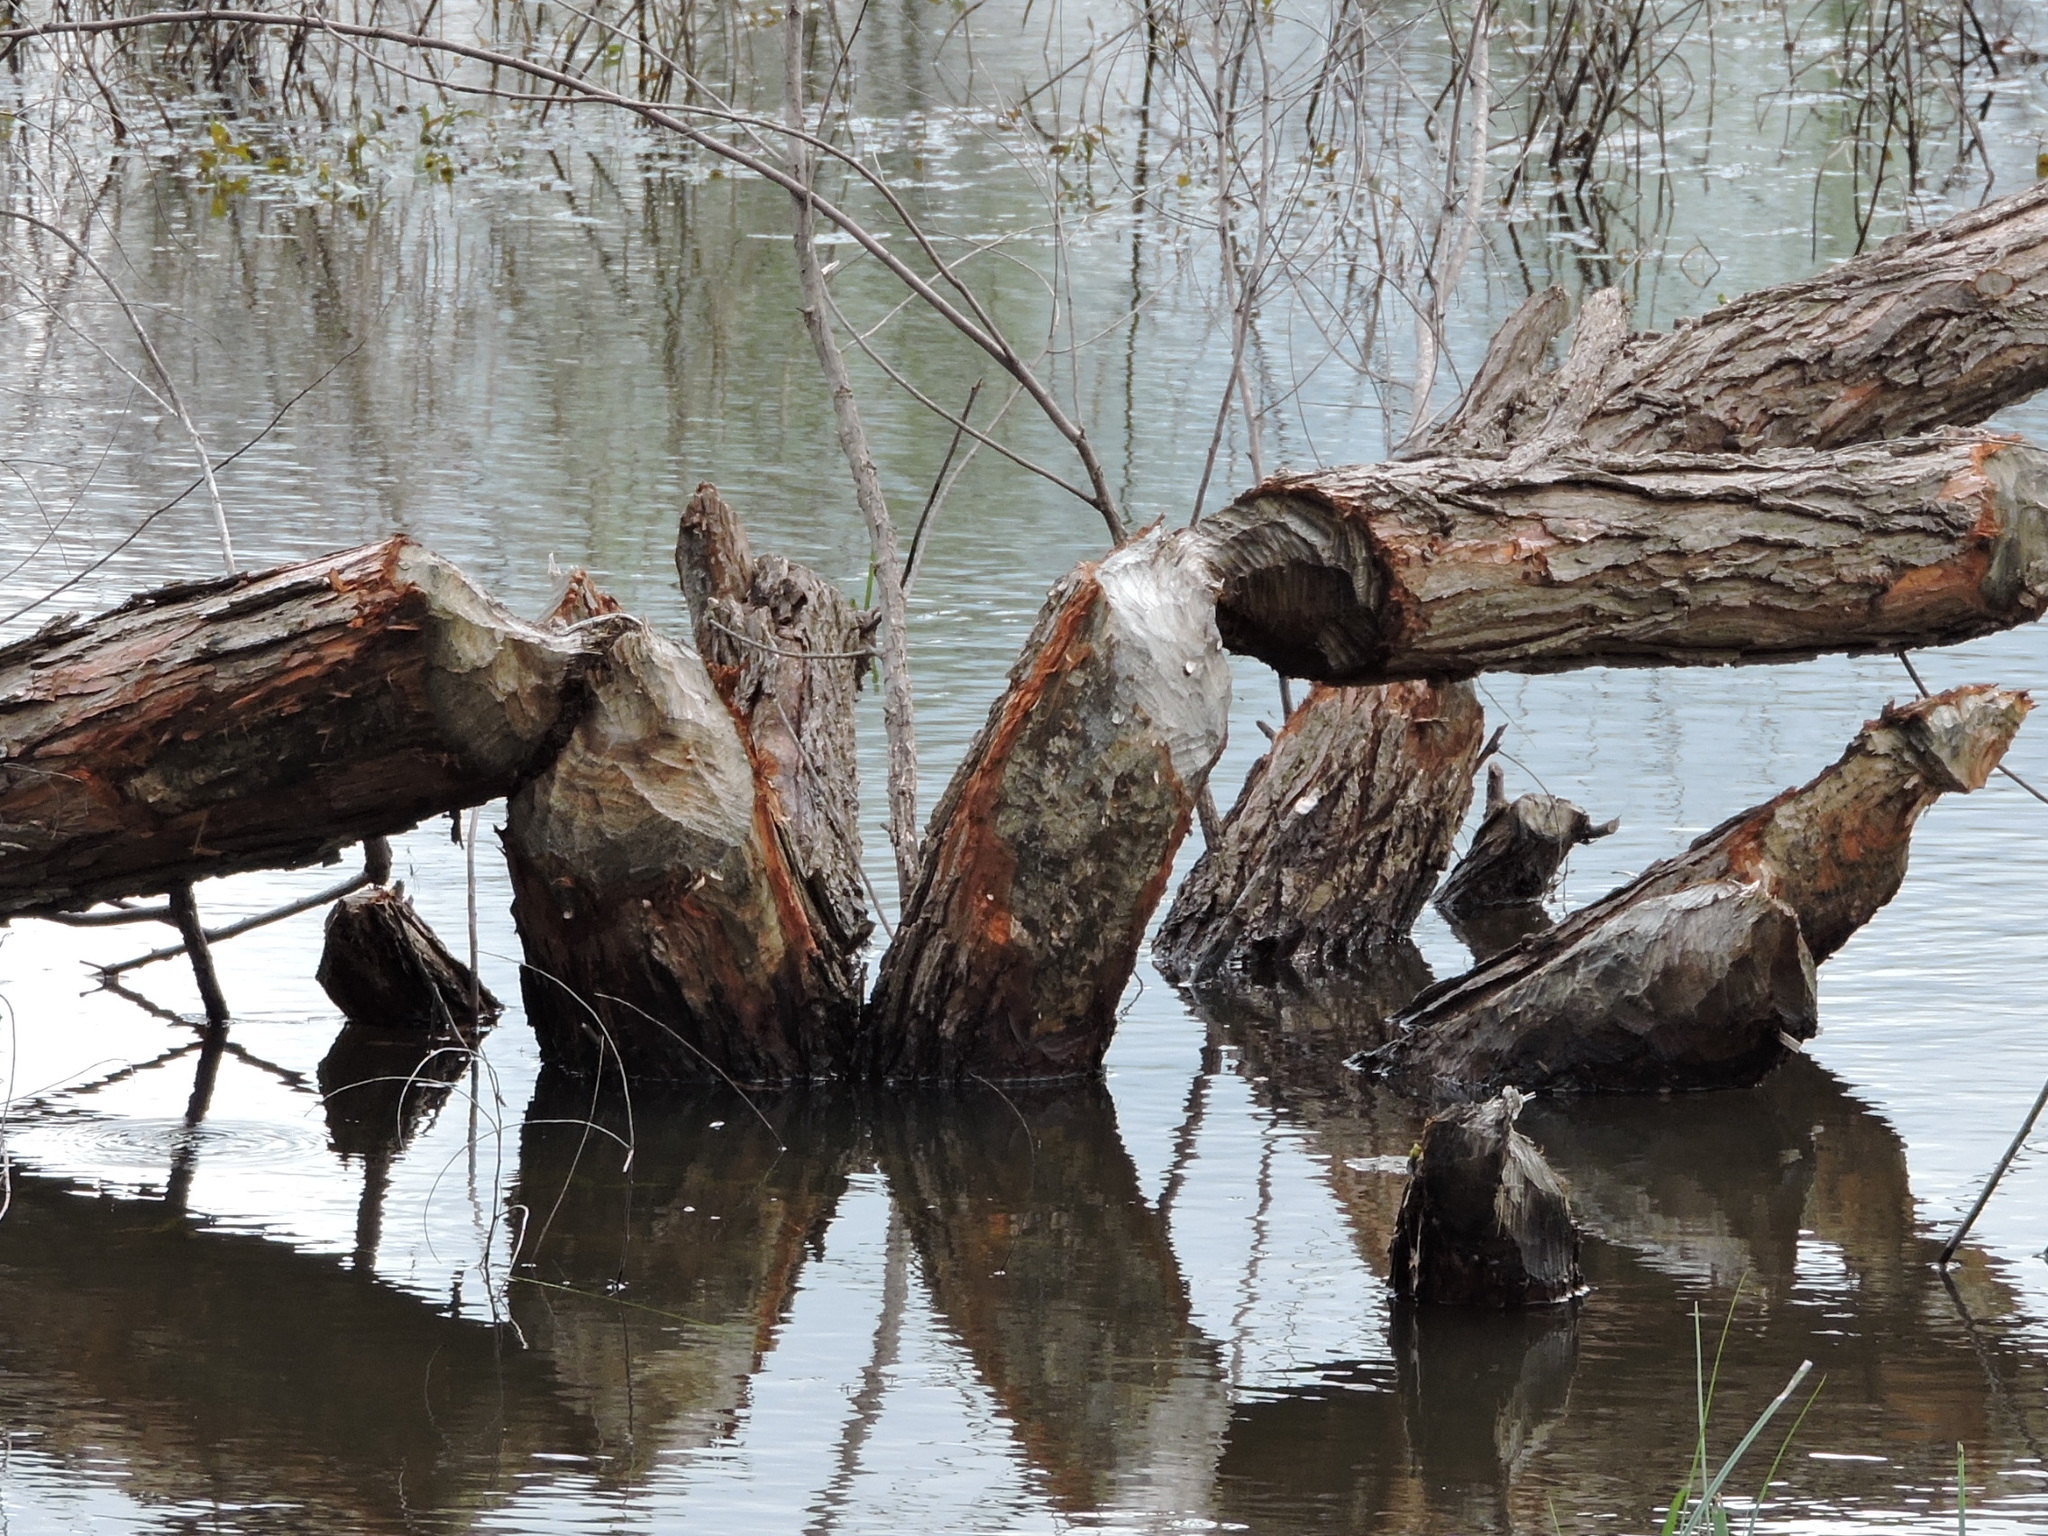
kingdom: Animalia
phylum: Chordata
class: Mammalia
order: Rodentia
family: Castoridae
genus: Castor
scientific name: Castor canadensis
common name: American beaver
